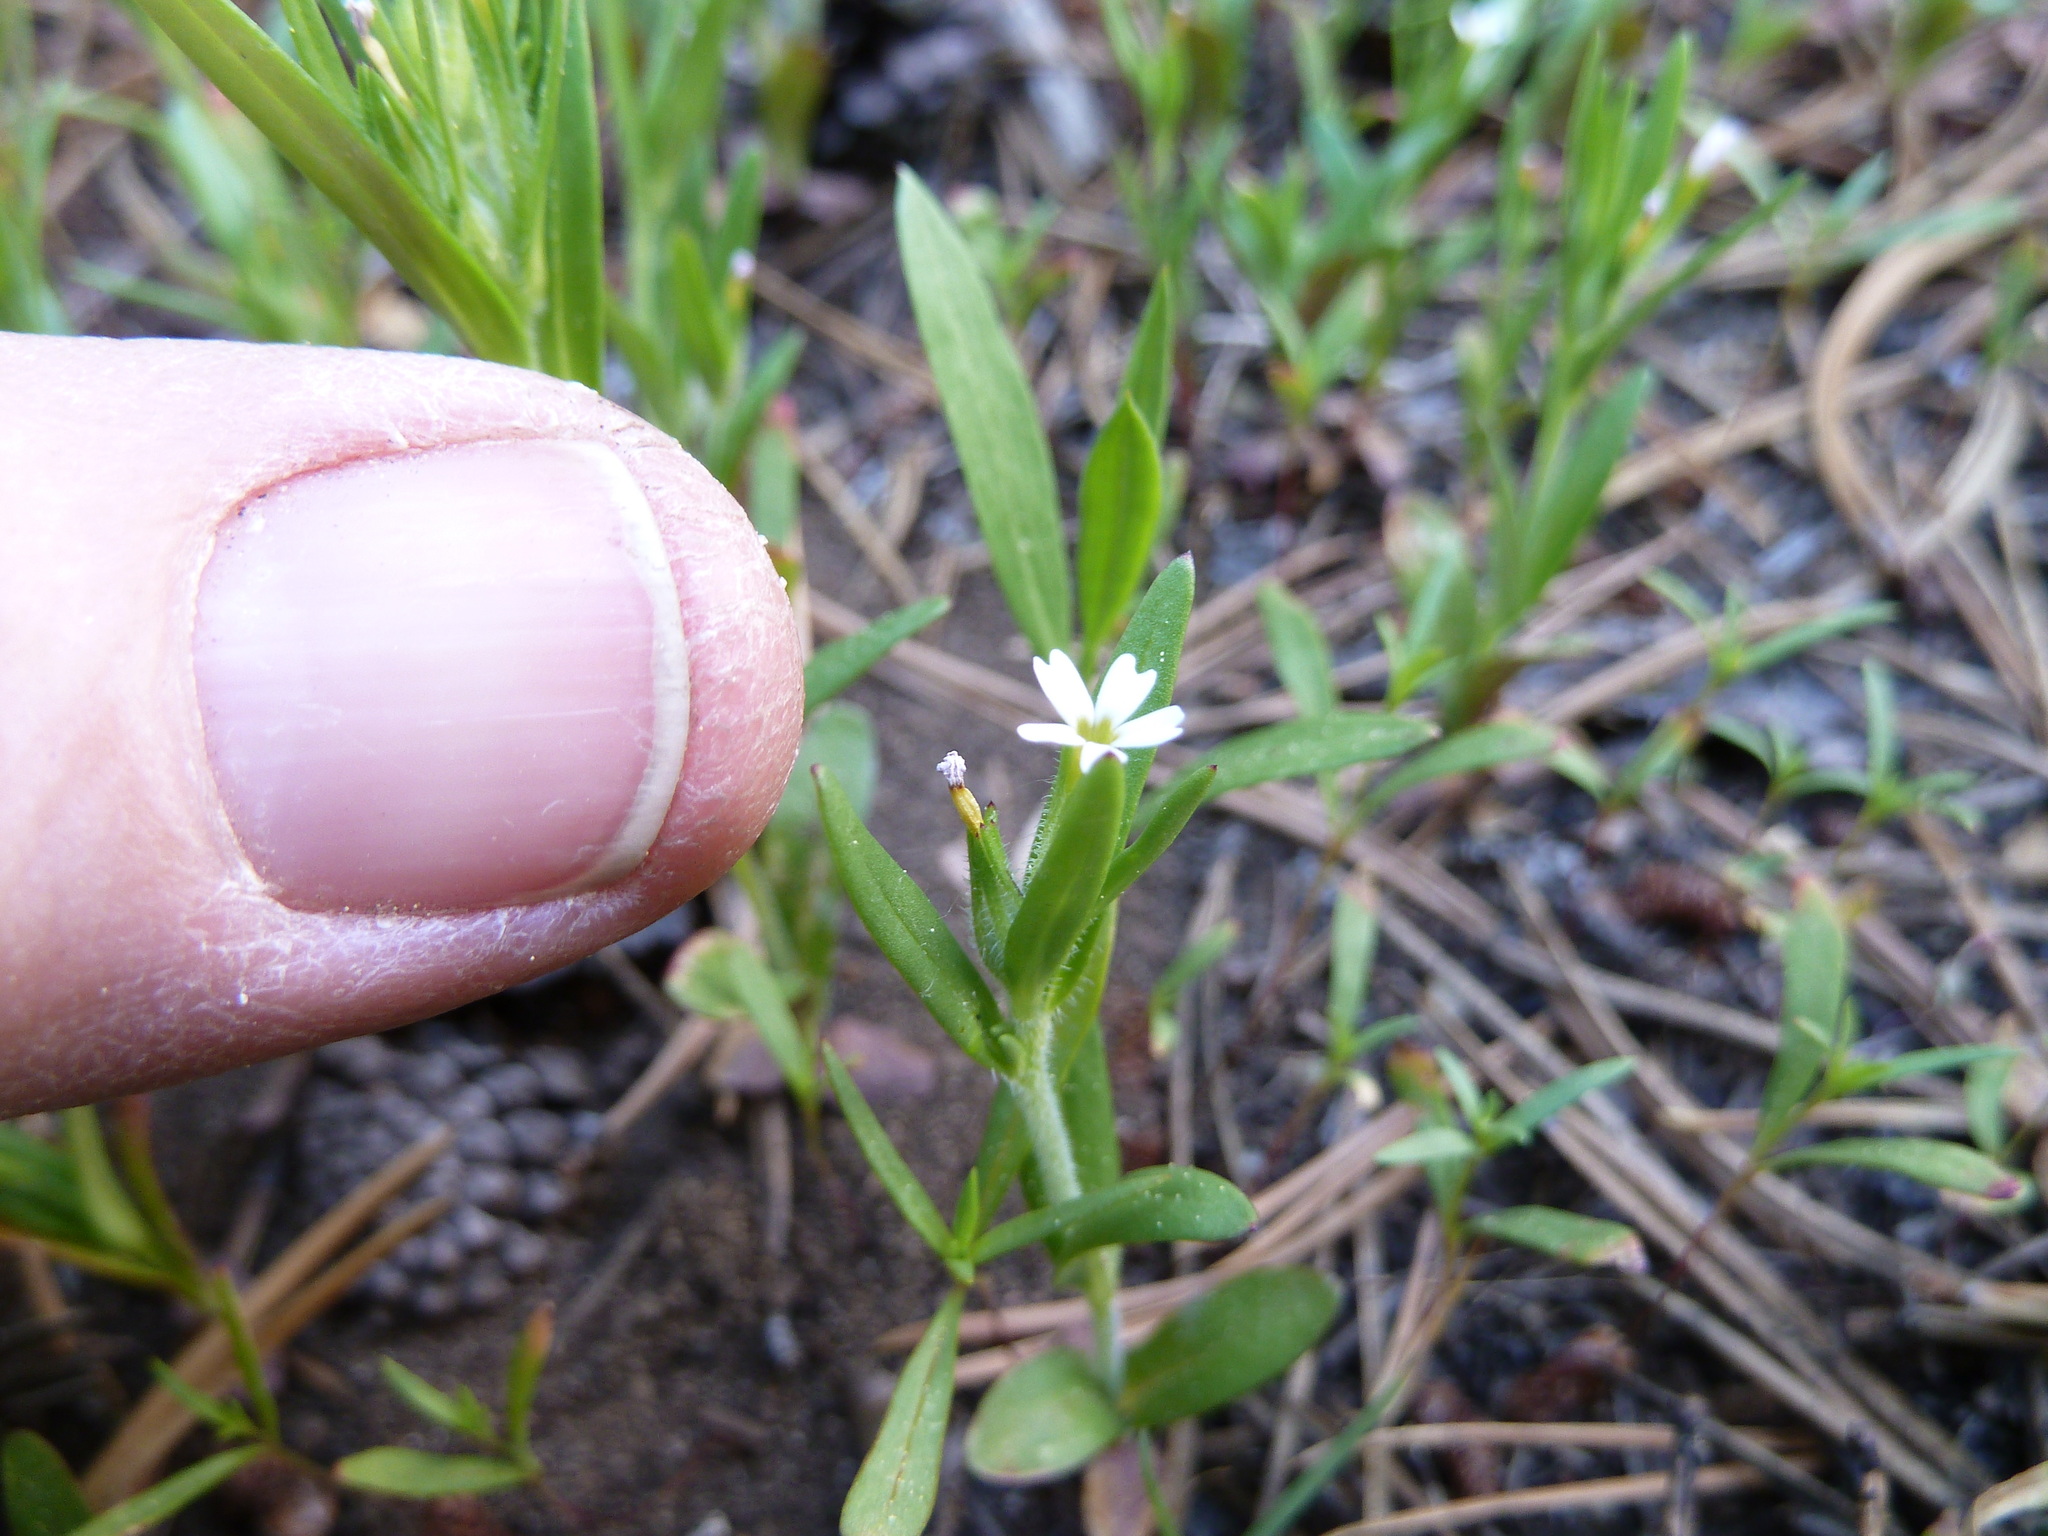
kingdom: Plantae
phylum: Tracheophyta
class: Magnoliopsida
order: Ericales
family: Polemoniaceae
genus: Phlox
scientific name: Phlox gracilis
